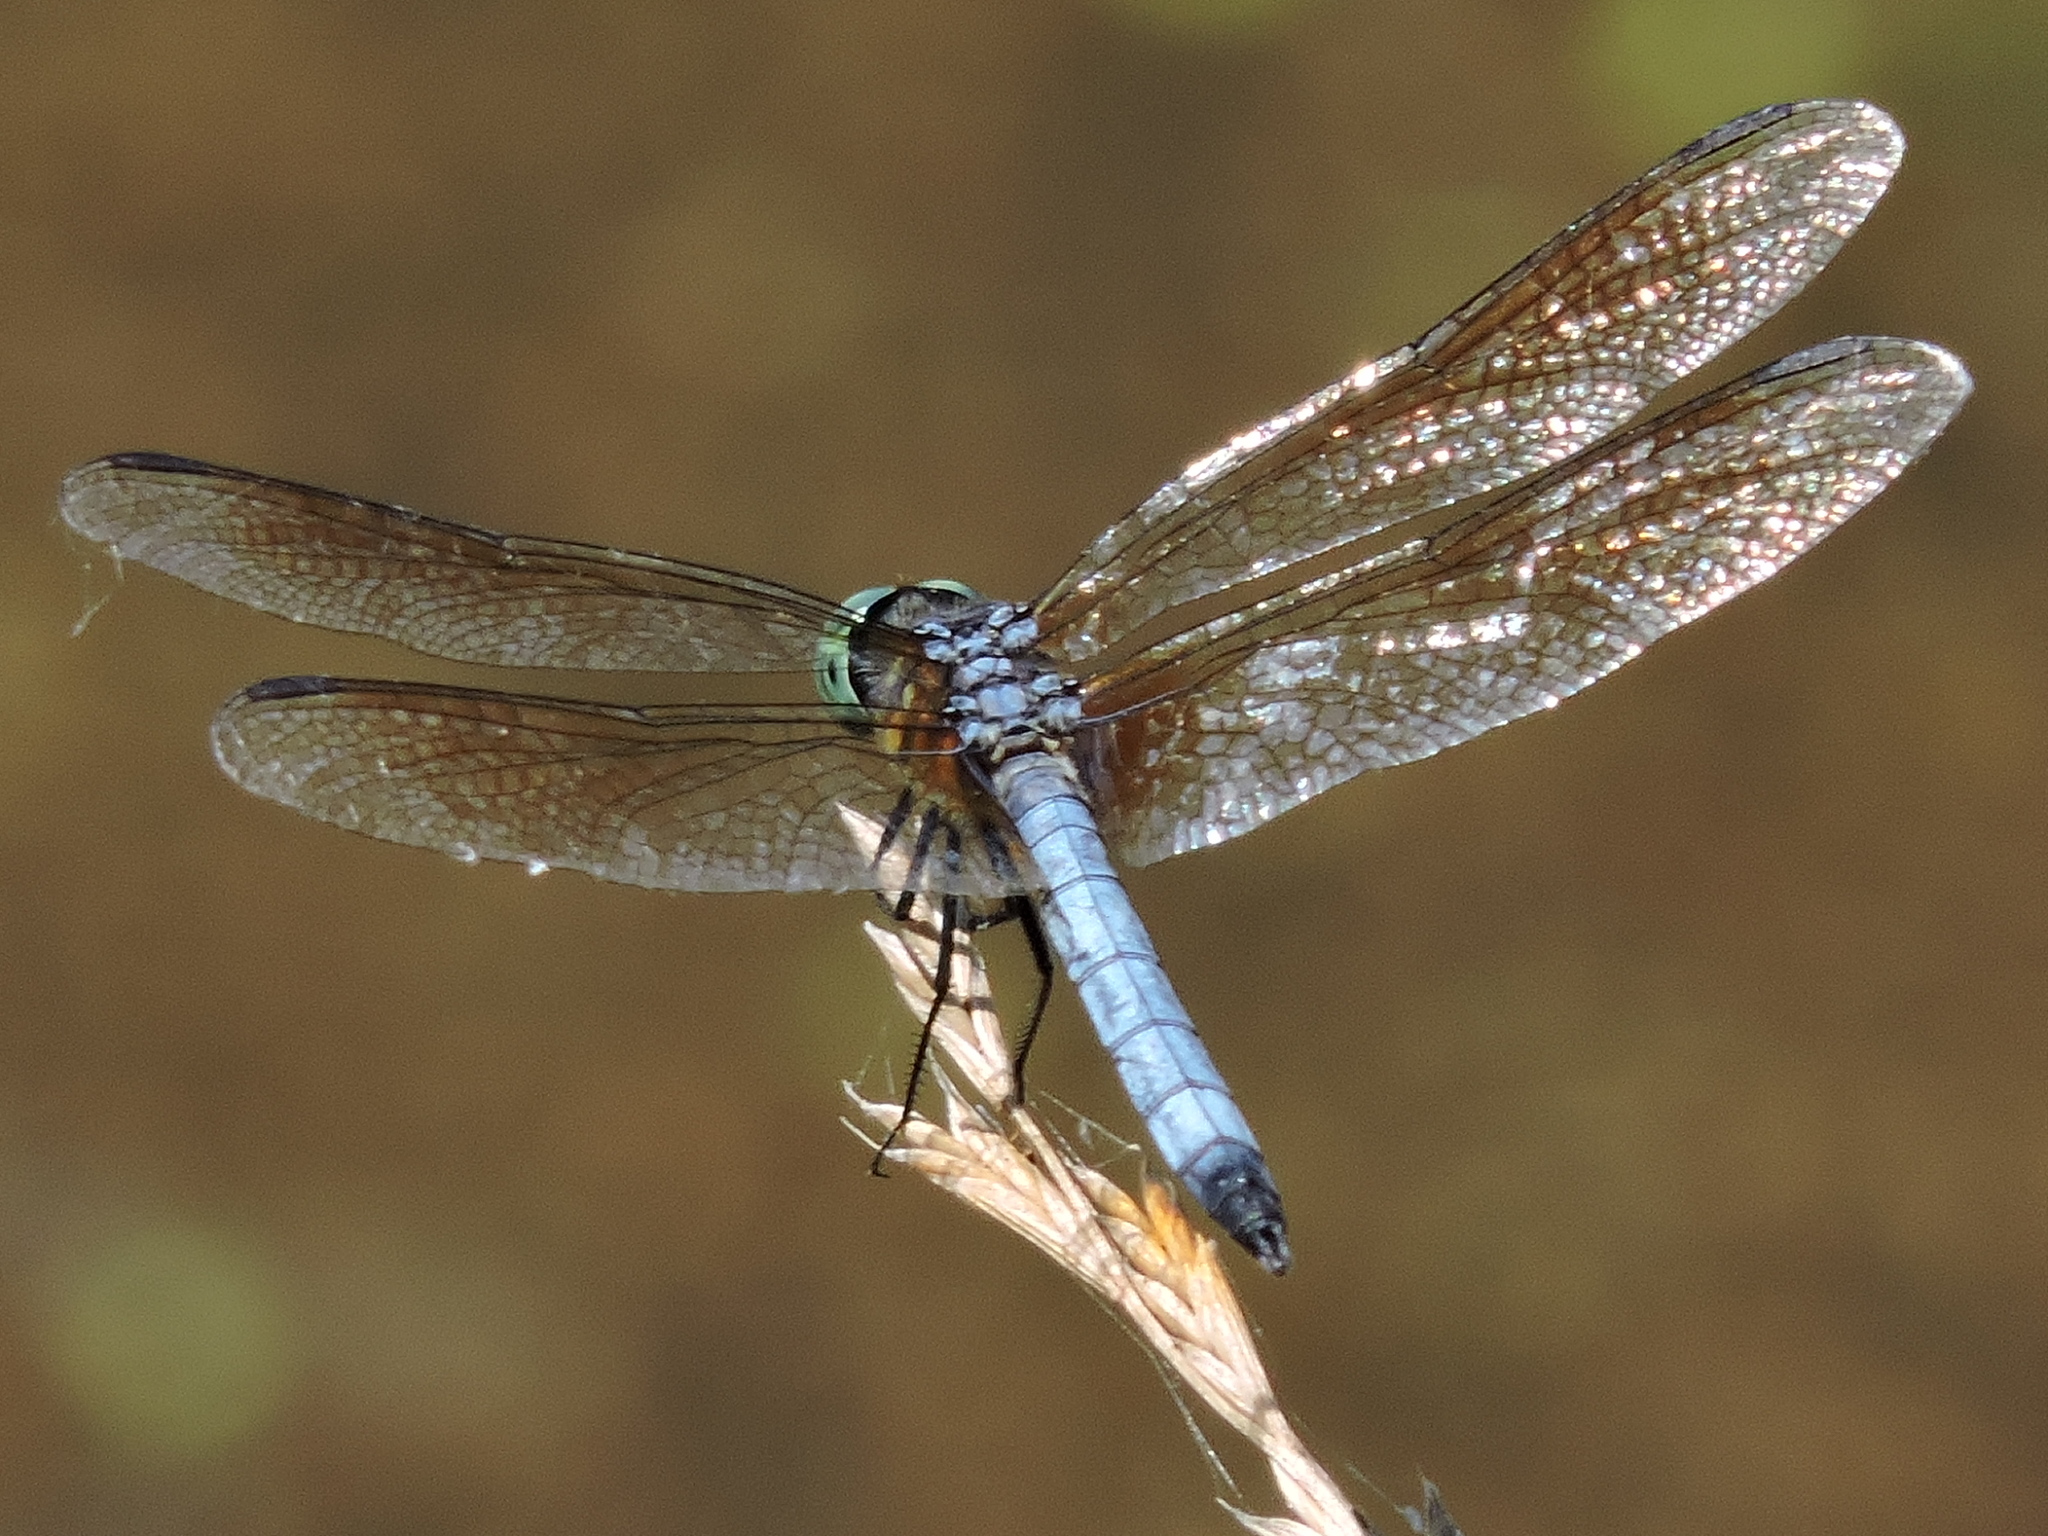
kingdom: Animalia
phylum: Arthropoda
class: Insecta
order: Odonata
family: Libellulidae
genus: Pachydiplax
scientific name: Pachydiplax longipennis
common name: Blue dasher
